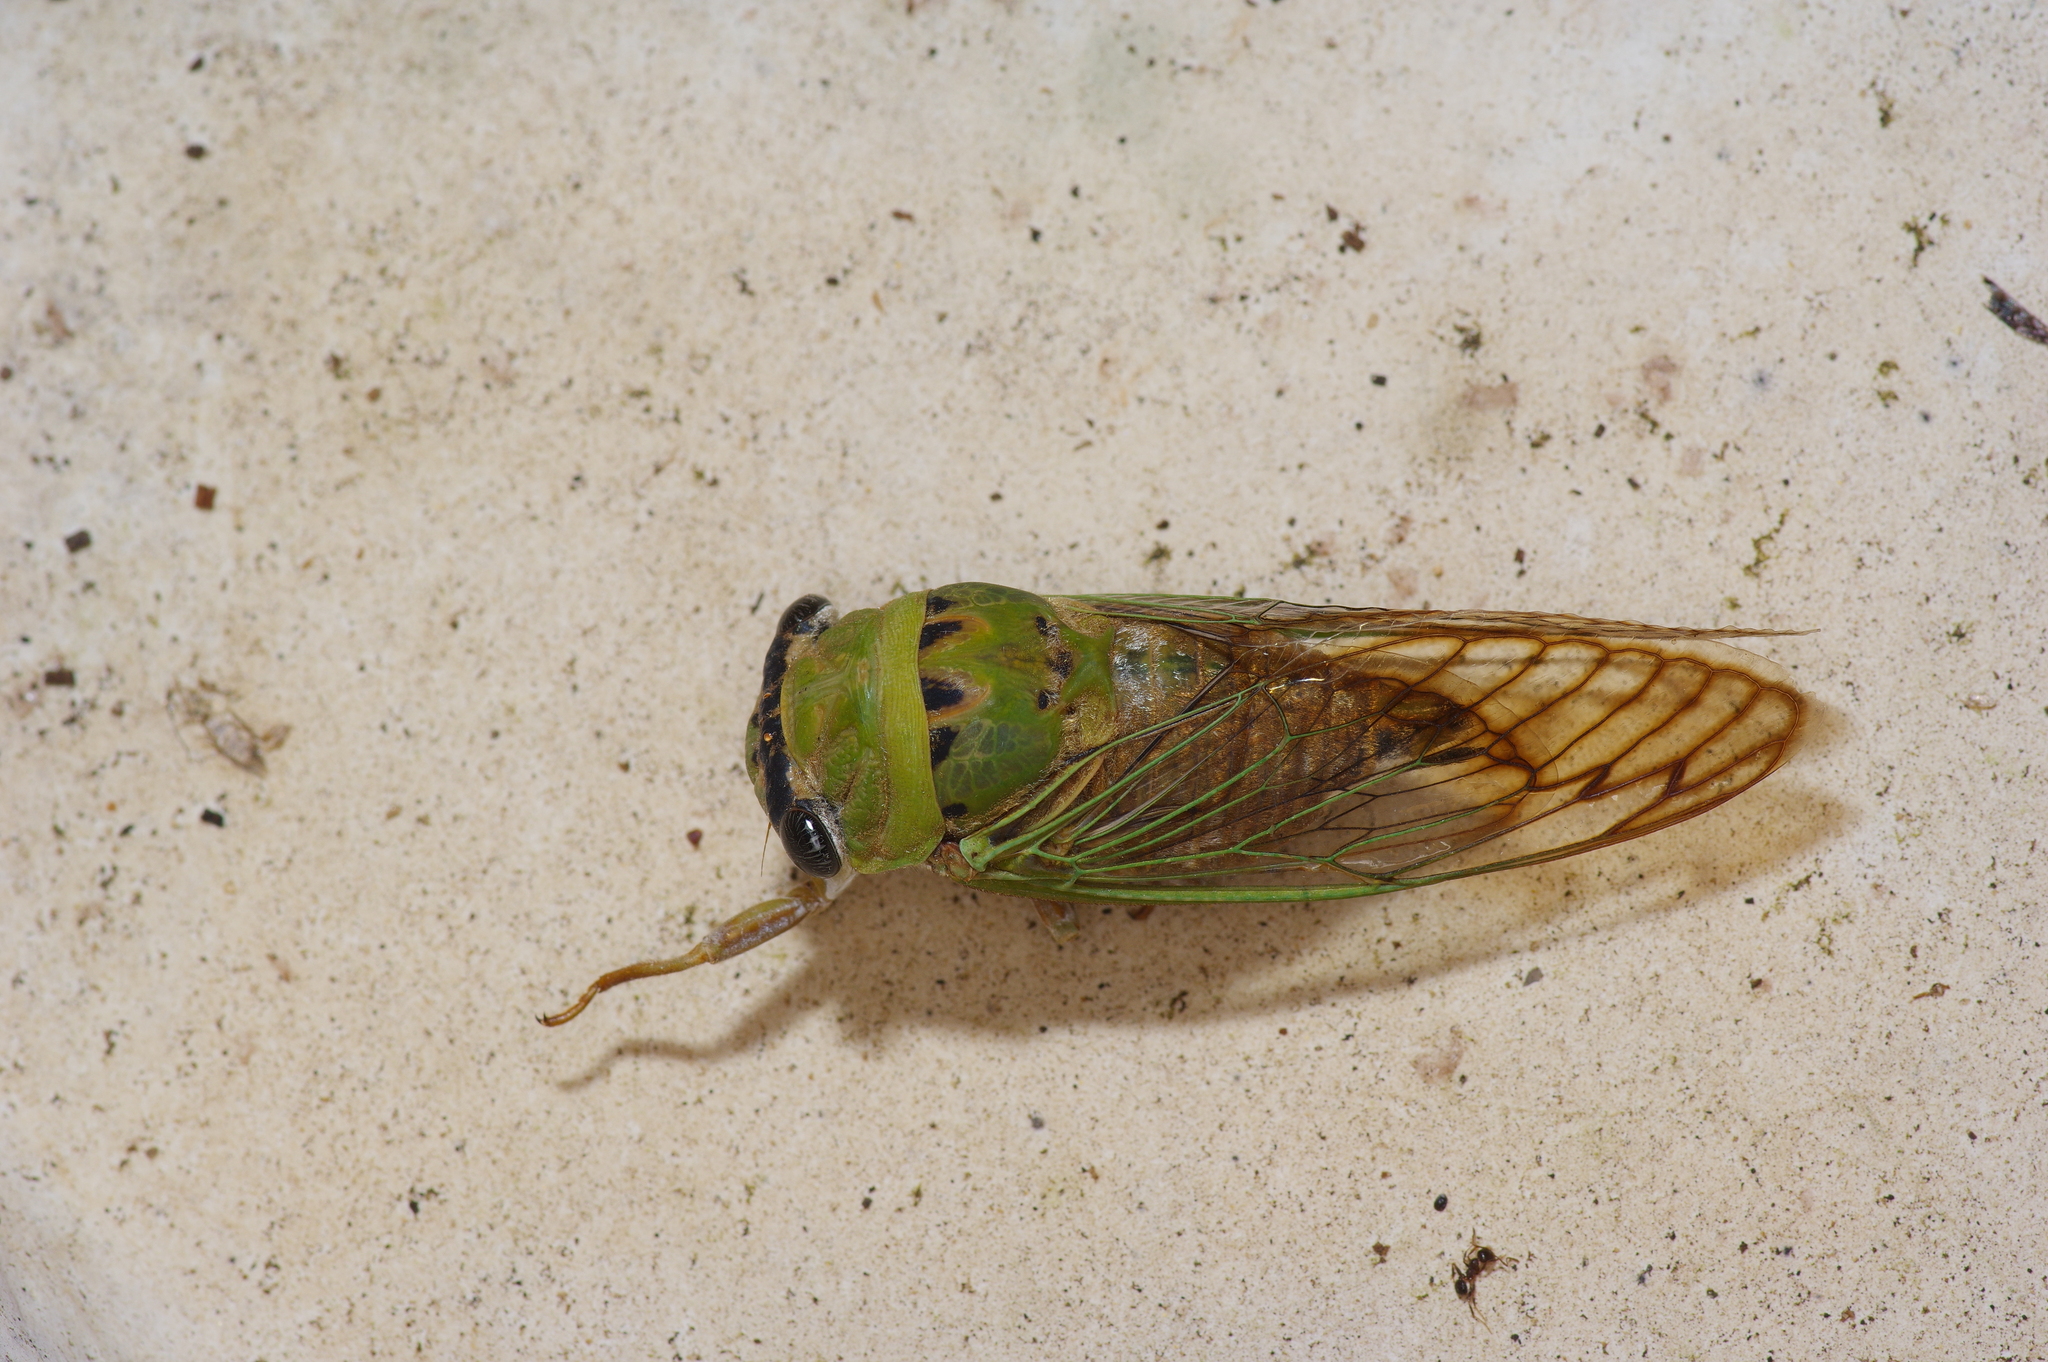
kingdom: Animalia
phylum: Arthropoda
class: Insecta
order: Hemiptera
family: Cicadidae
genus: Neotibicen
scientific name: Neotibicen superbus
